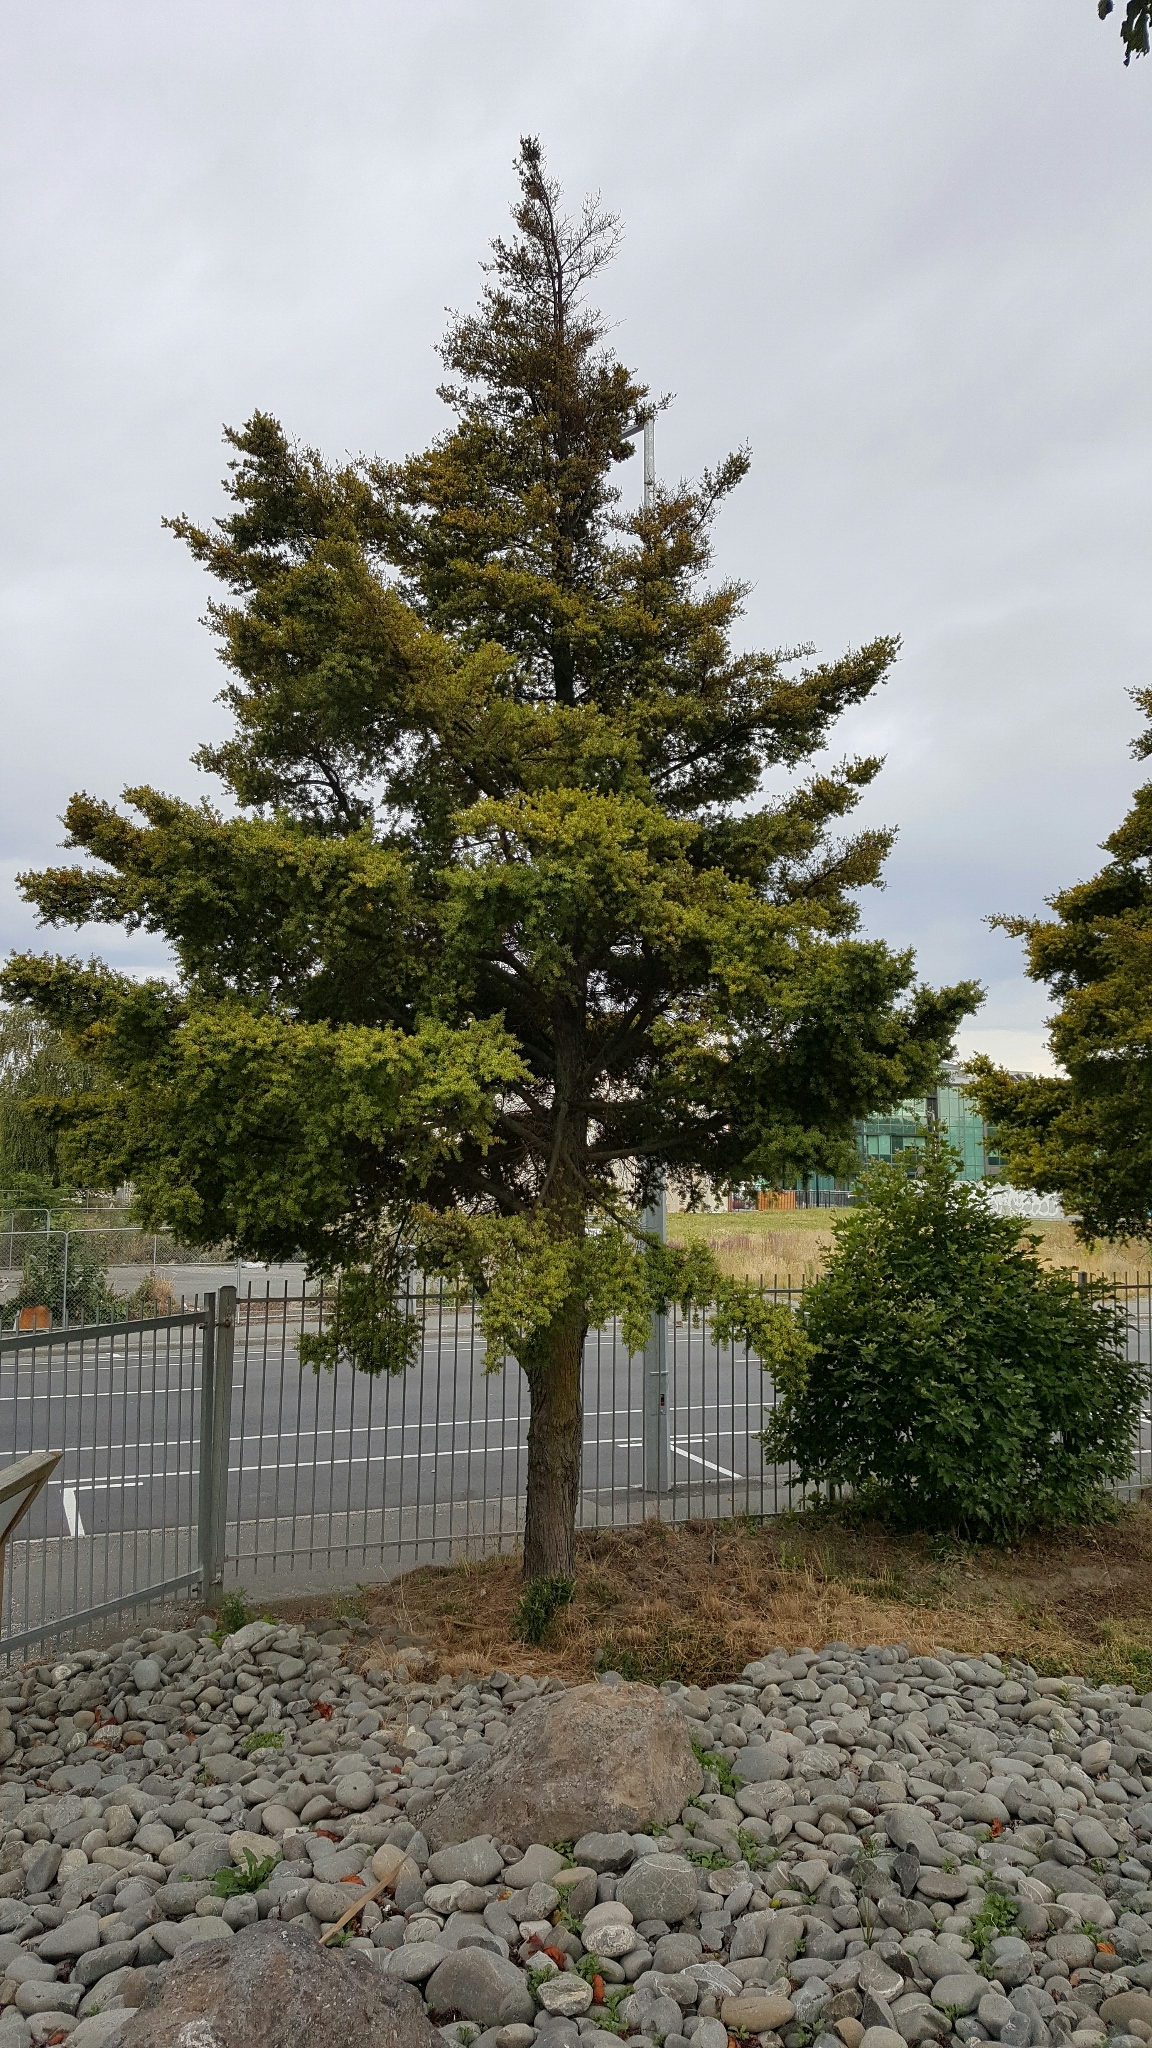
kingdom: Plantae
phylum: Tracheophyta
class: Pinopsida
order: Pinales
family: Podocarpaceae
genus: Podocarpus
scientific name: Podocarpus totara
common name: Totara
